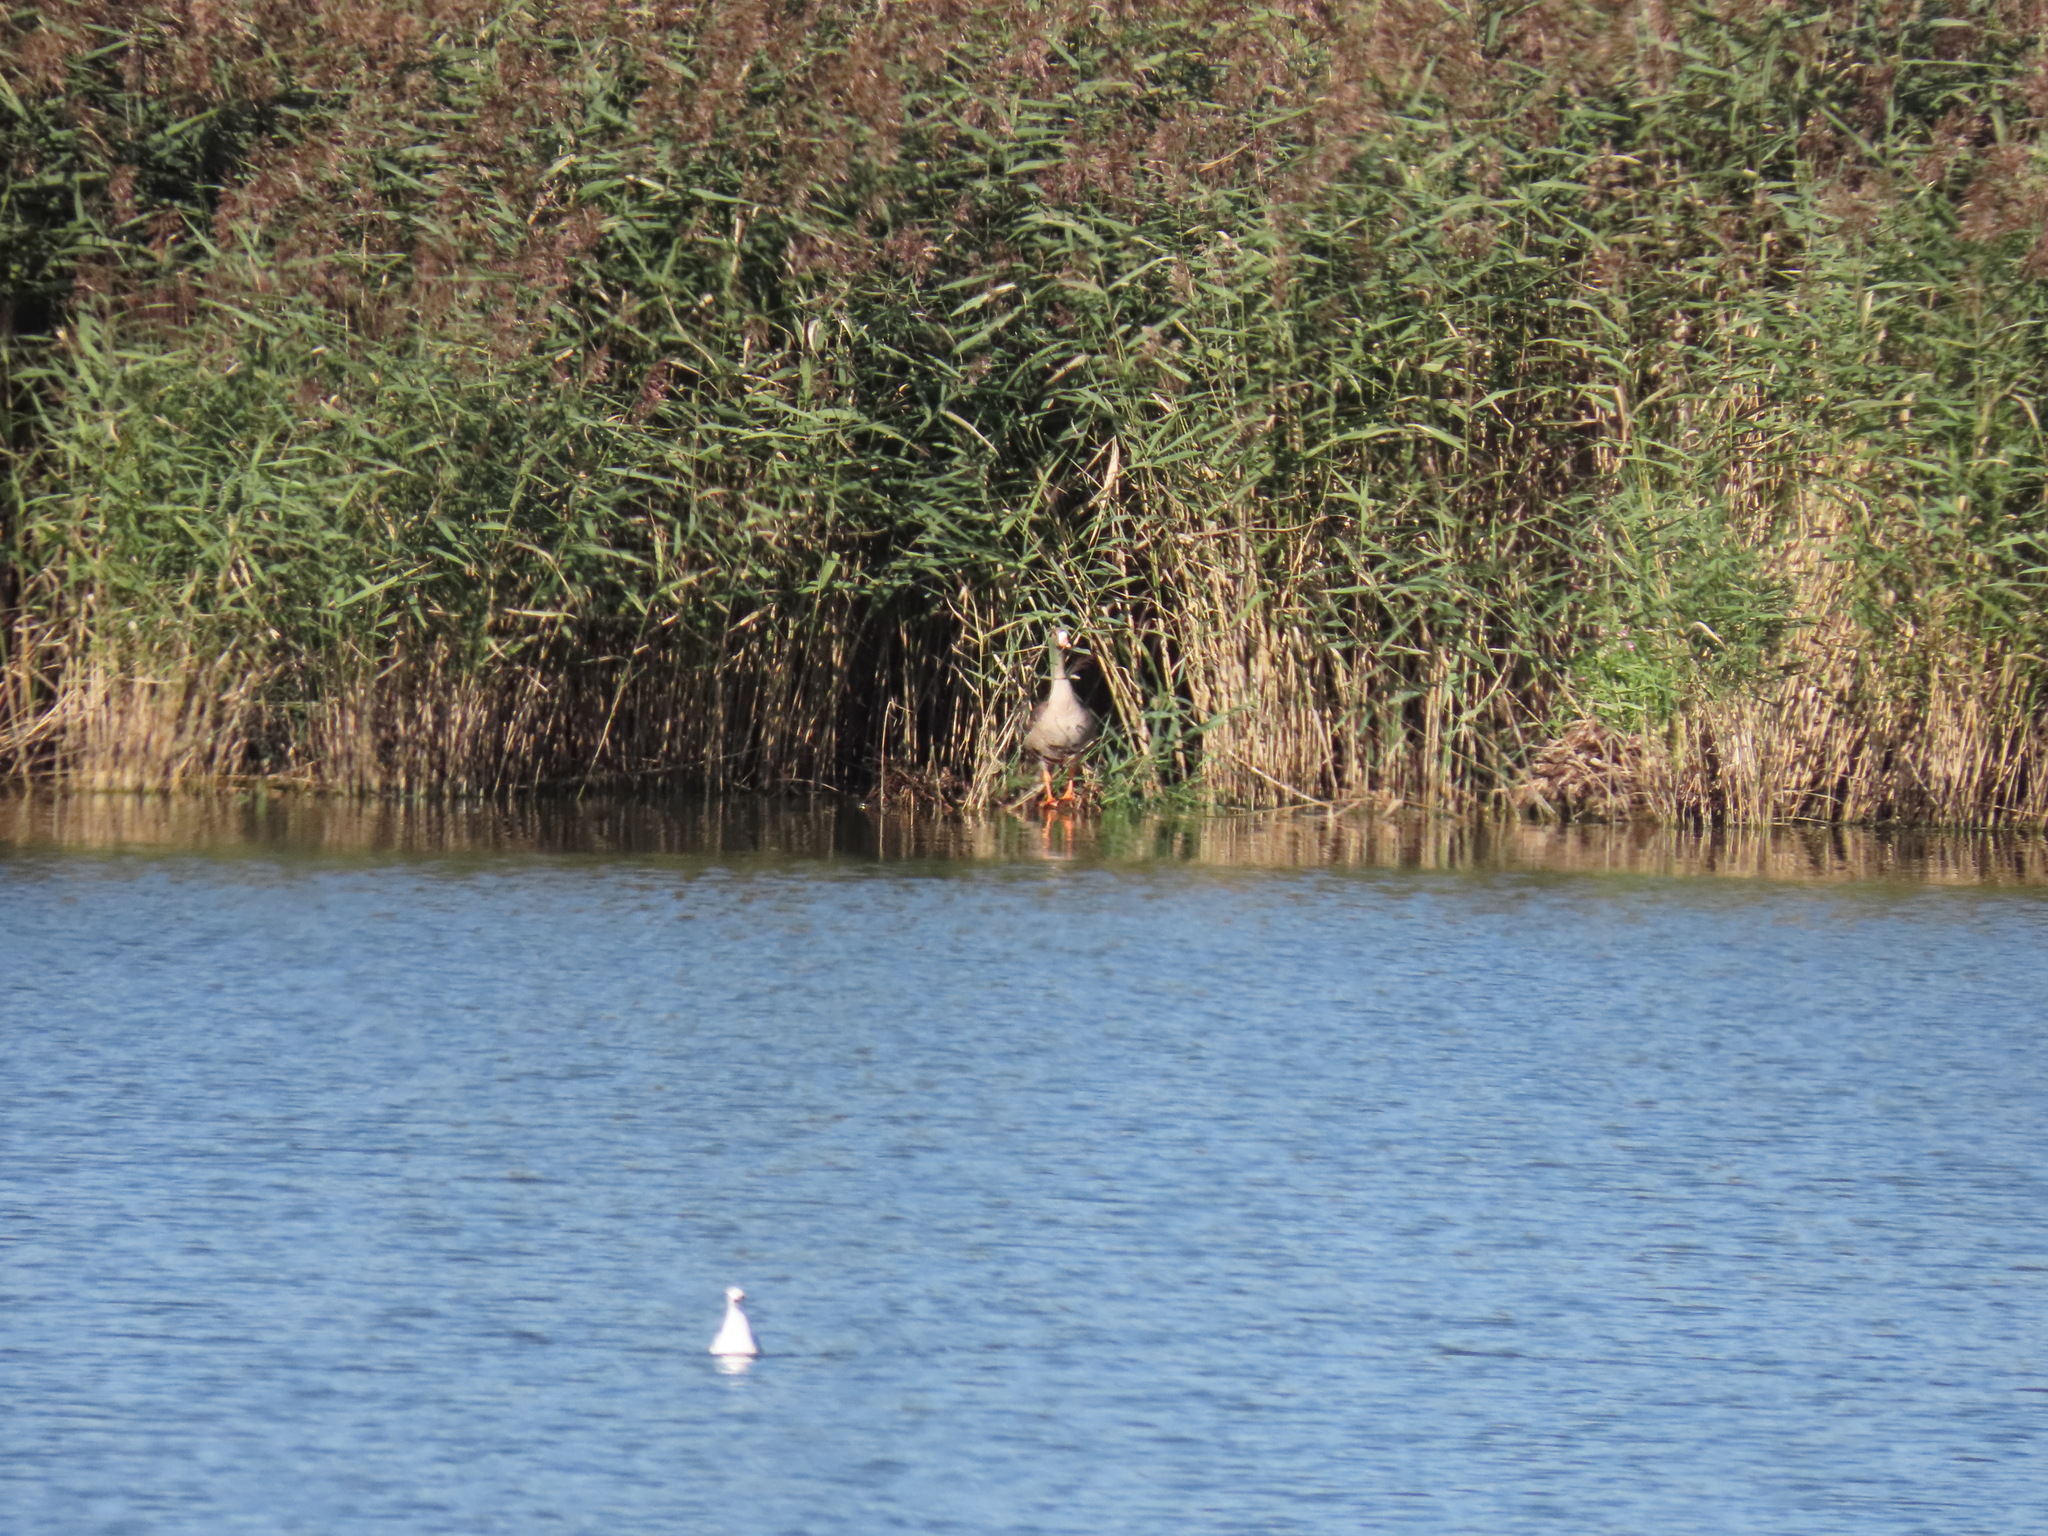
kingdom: Animalia
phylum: Chordata
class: Aves
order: Anseriformes
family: Anatidae
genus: Anser
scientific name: Anser albifrons
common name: Greater white-fronted goose
